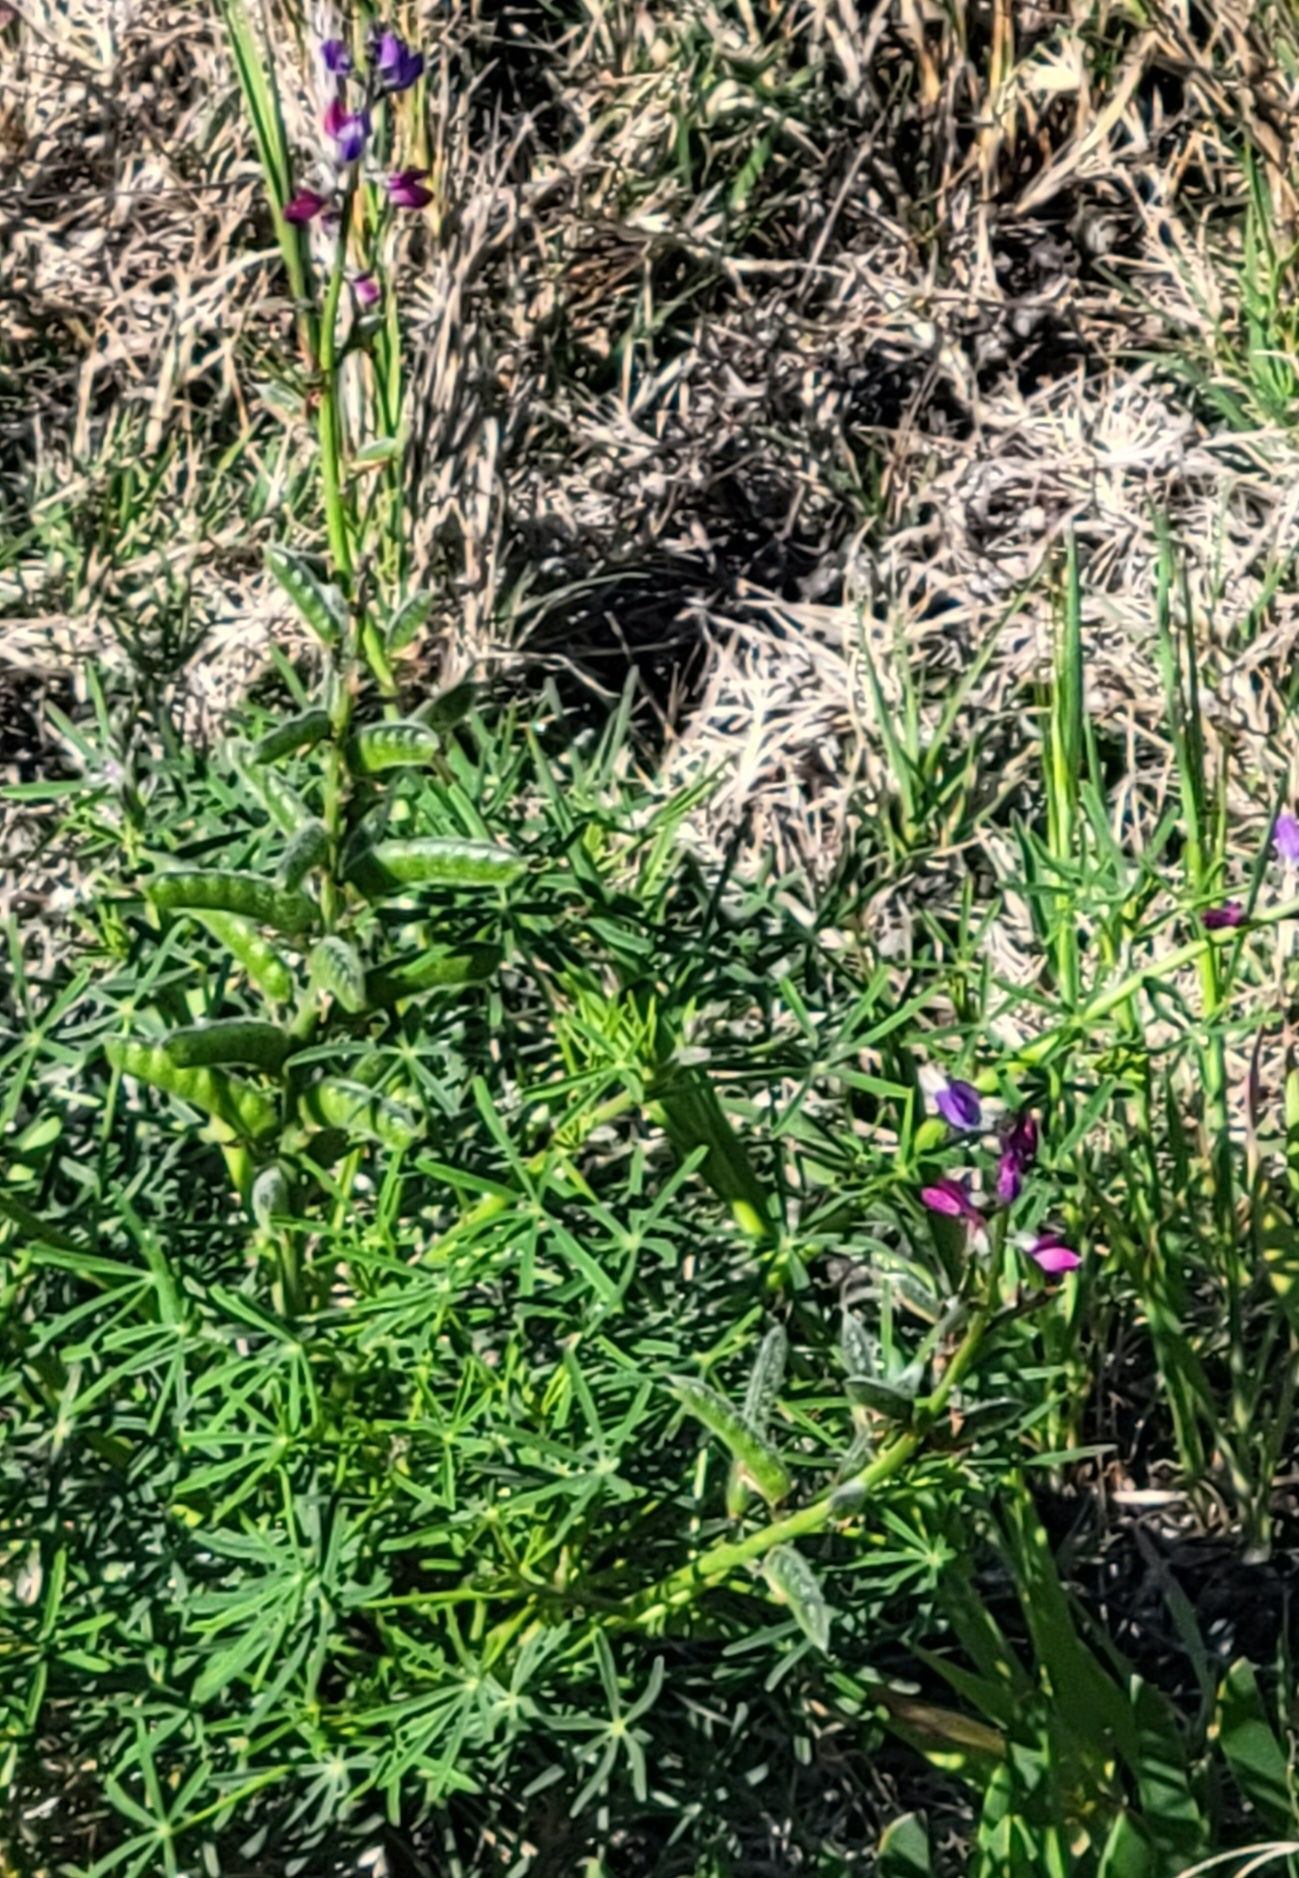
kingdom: Plantae
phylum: Tracheophyta
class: Magnoliopsida
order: Fabales
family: Fabaceae
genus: Lupinus
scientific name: Lupinus truncatus
